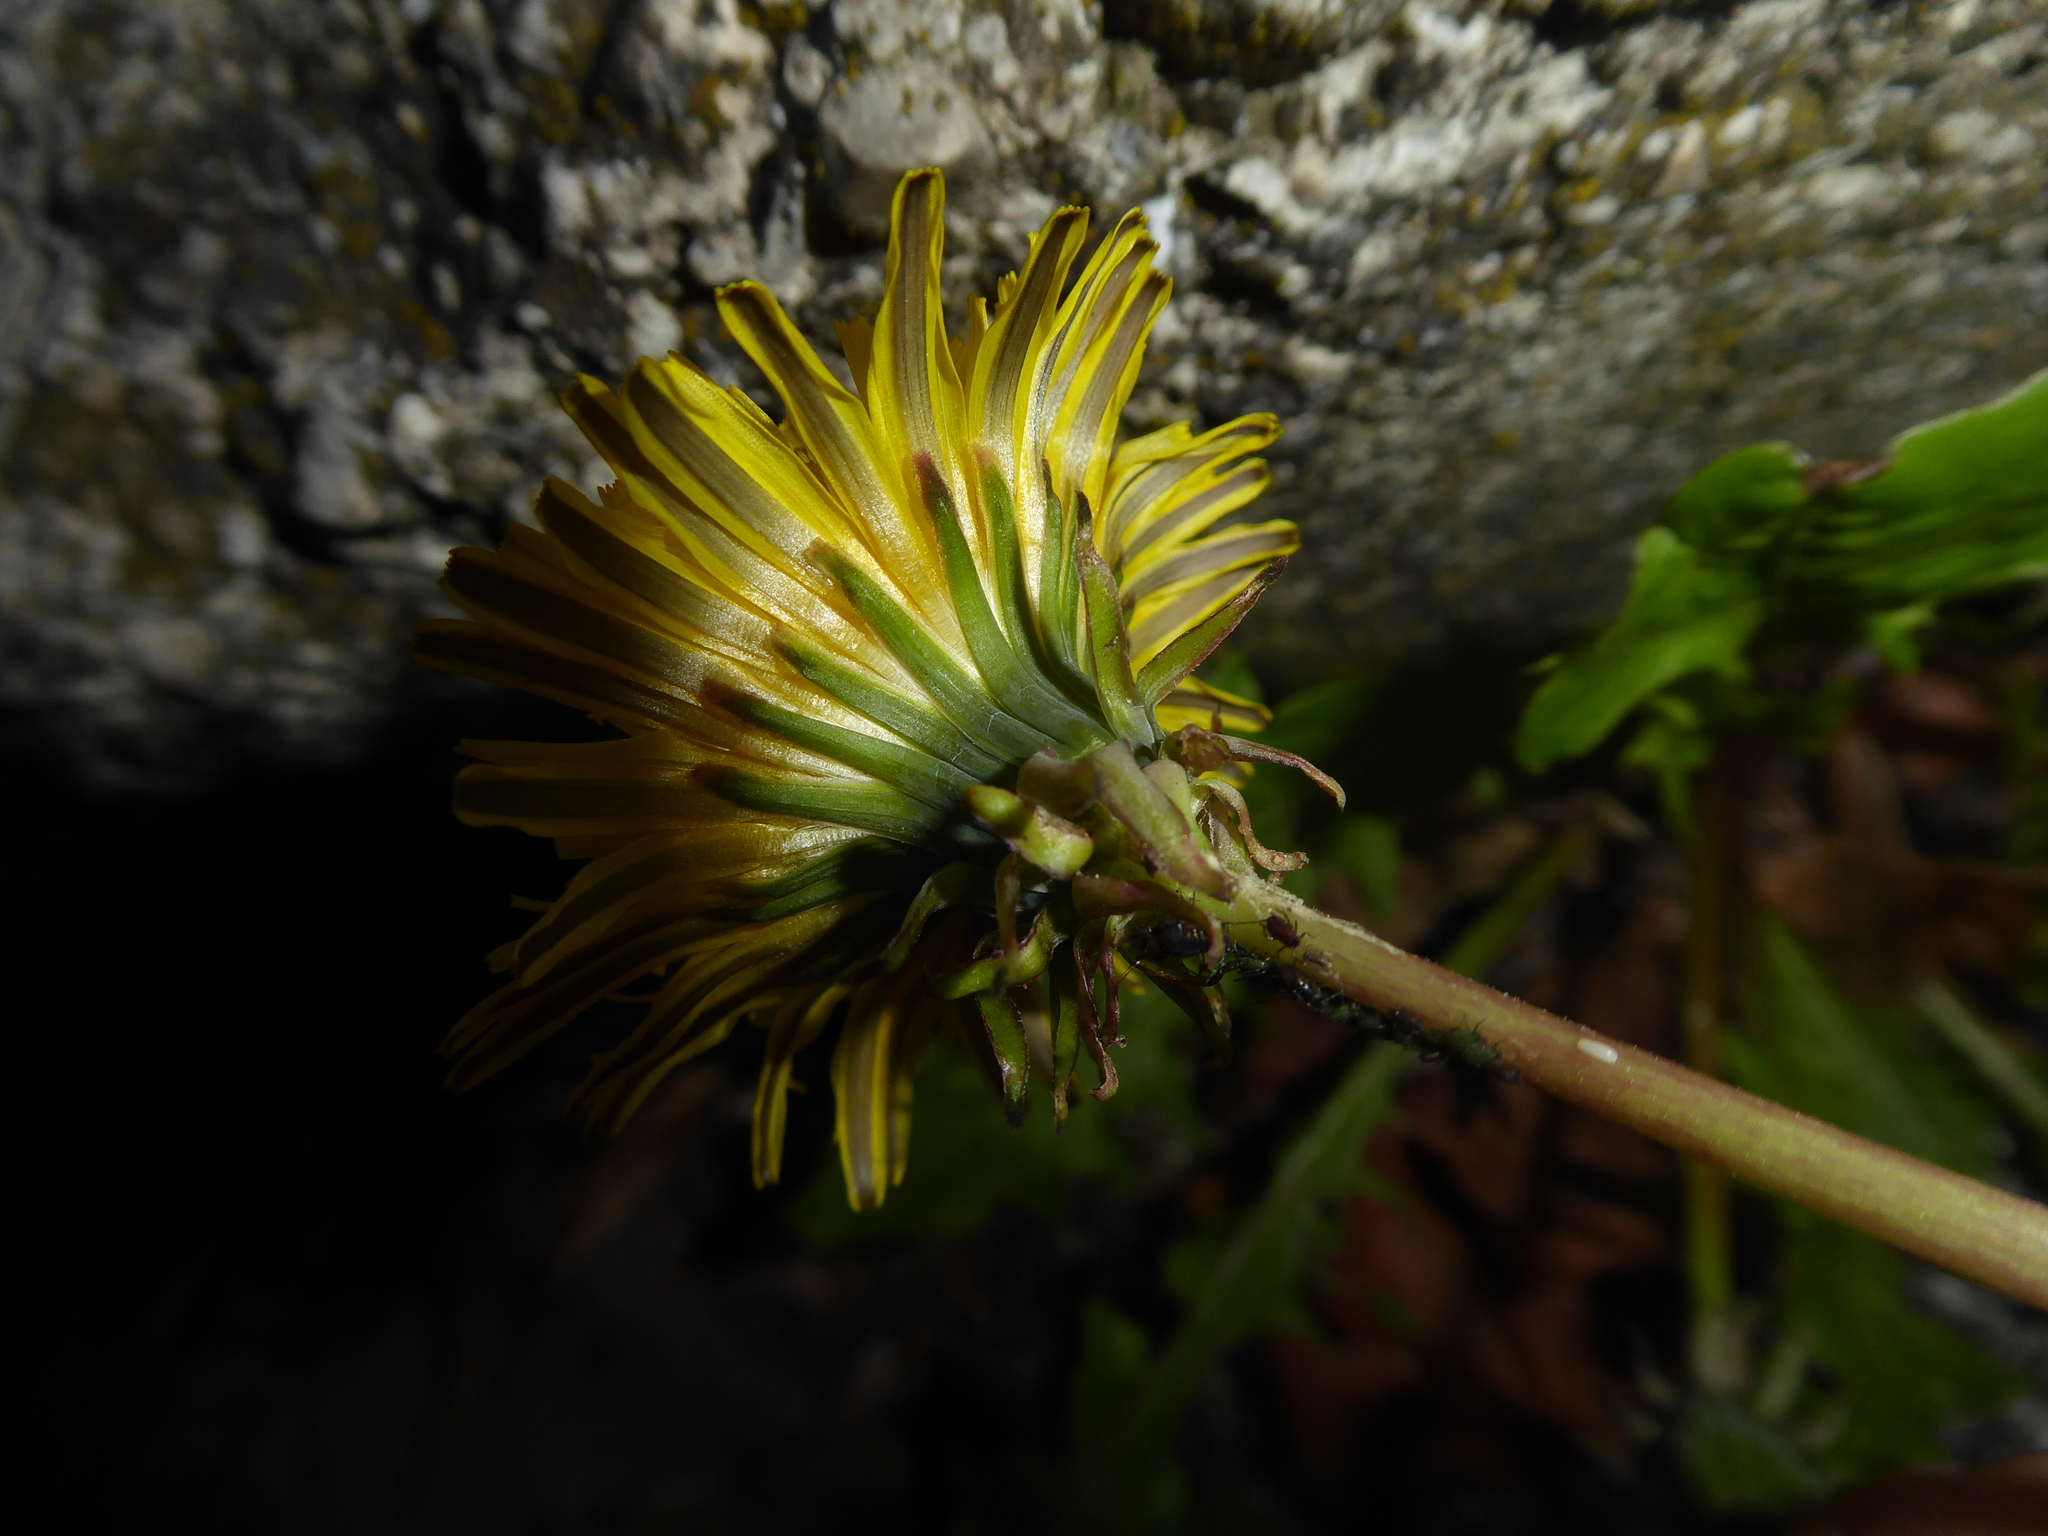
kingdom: Plantae
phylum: Tracheophyta
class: Magnoliopsida
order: Asterales
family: Asteraceae
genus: Taraxacum
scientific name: Taraxacum
